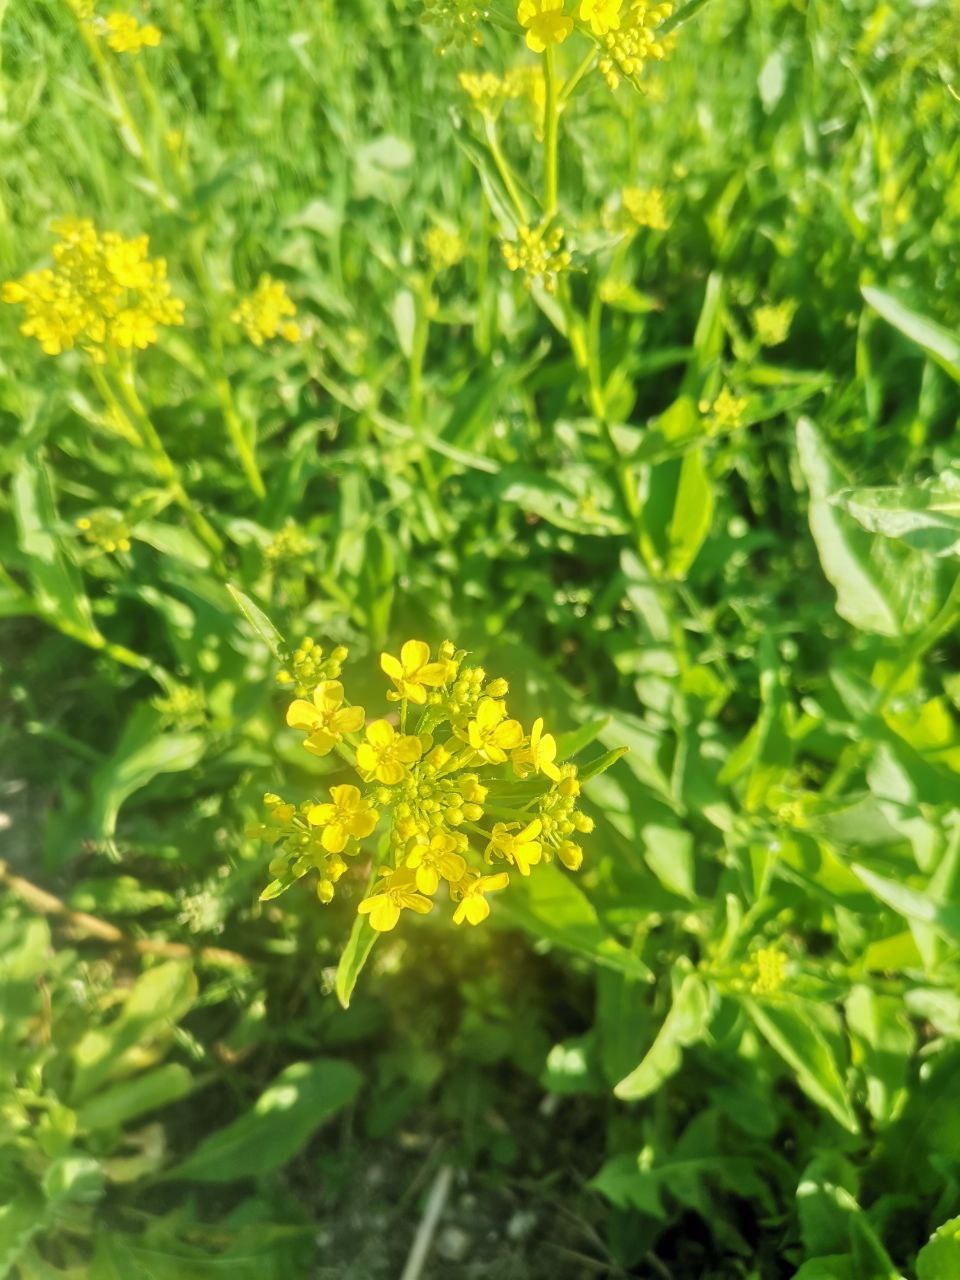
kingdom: Plantae
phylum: Tracheophyta
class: Magnoliopsida
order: Brassicales
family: Brassicaceae
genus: Bunias
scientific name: Bunias orientalis
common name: Warty-cabbage
